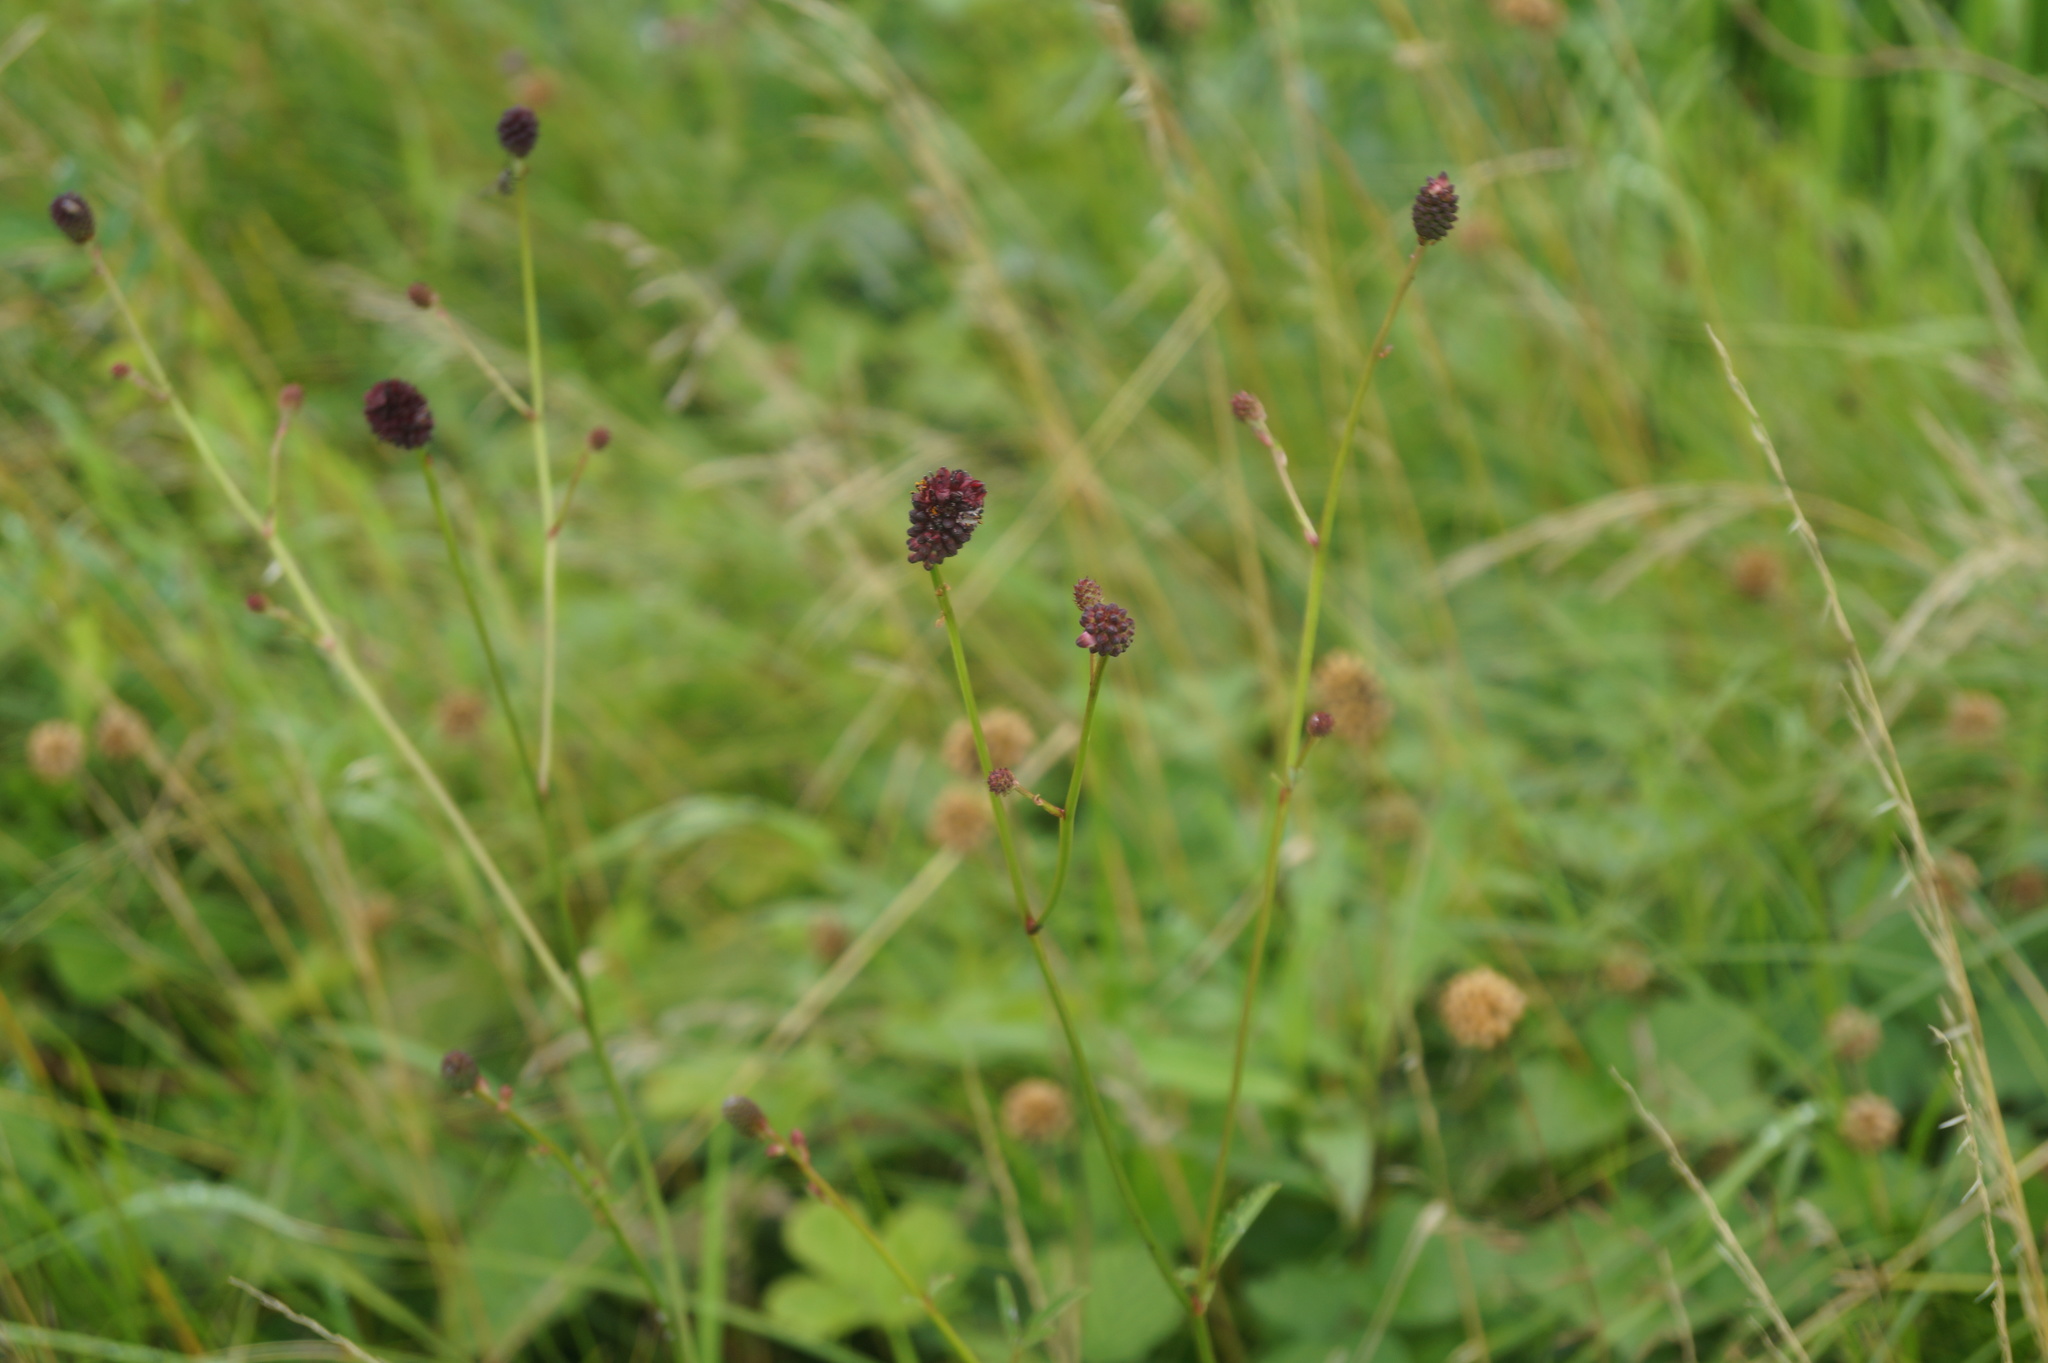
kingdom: Plantae
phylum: Tracheophyta
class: Magnoliopsida
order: Rosales
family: Rosaceae
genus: Sanguisorba
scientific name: Sanguisorba officinalis
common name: Great burnet
